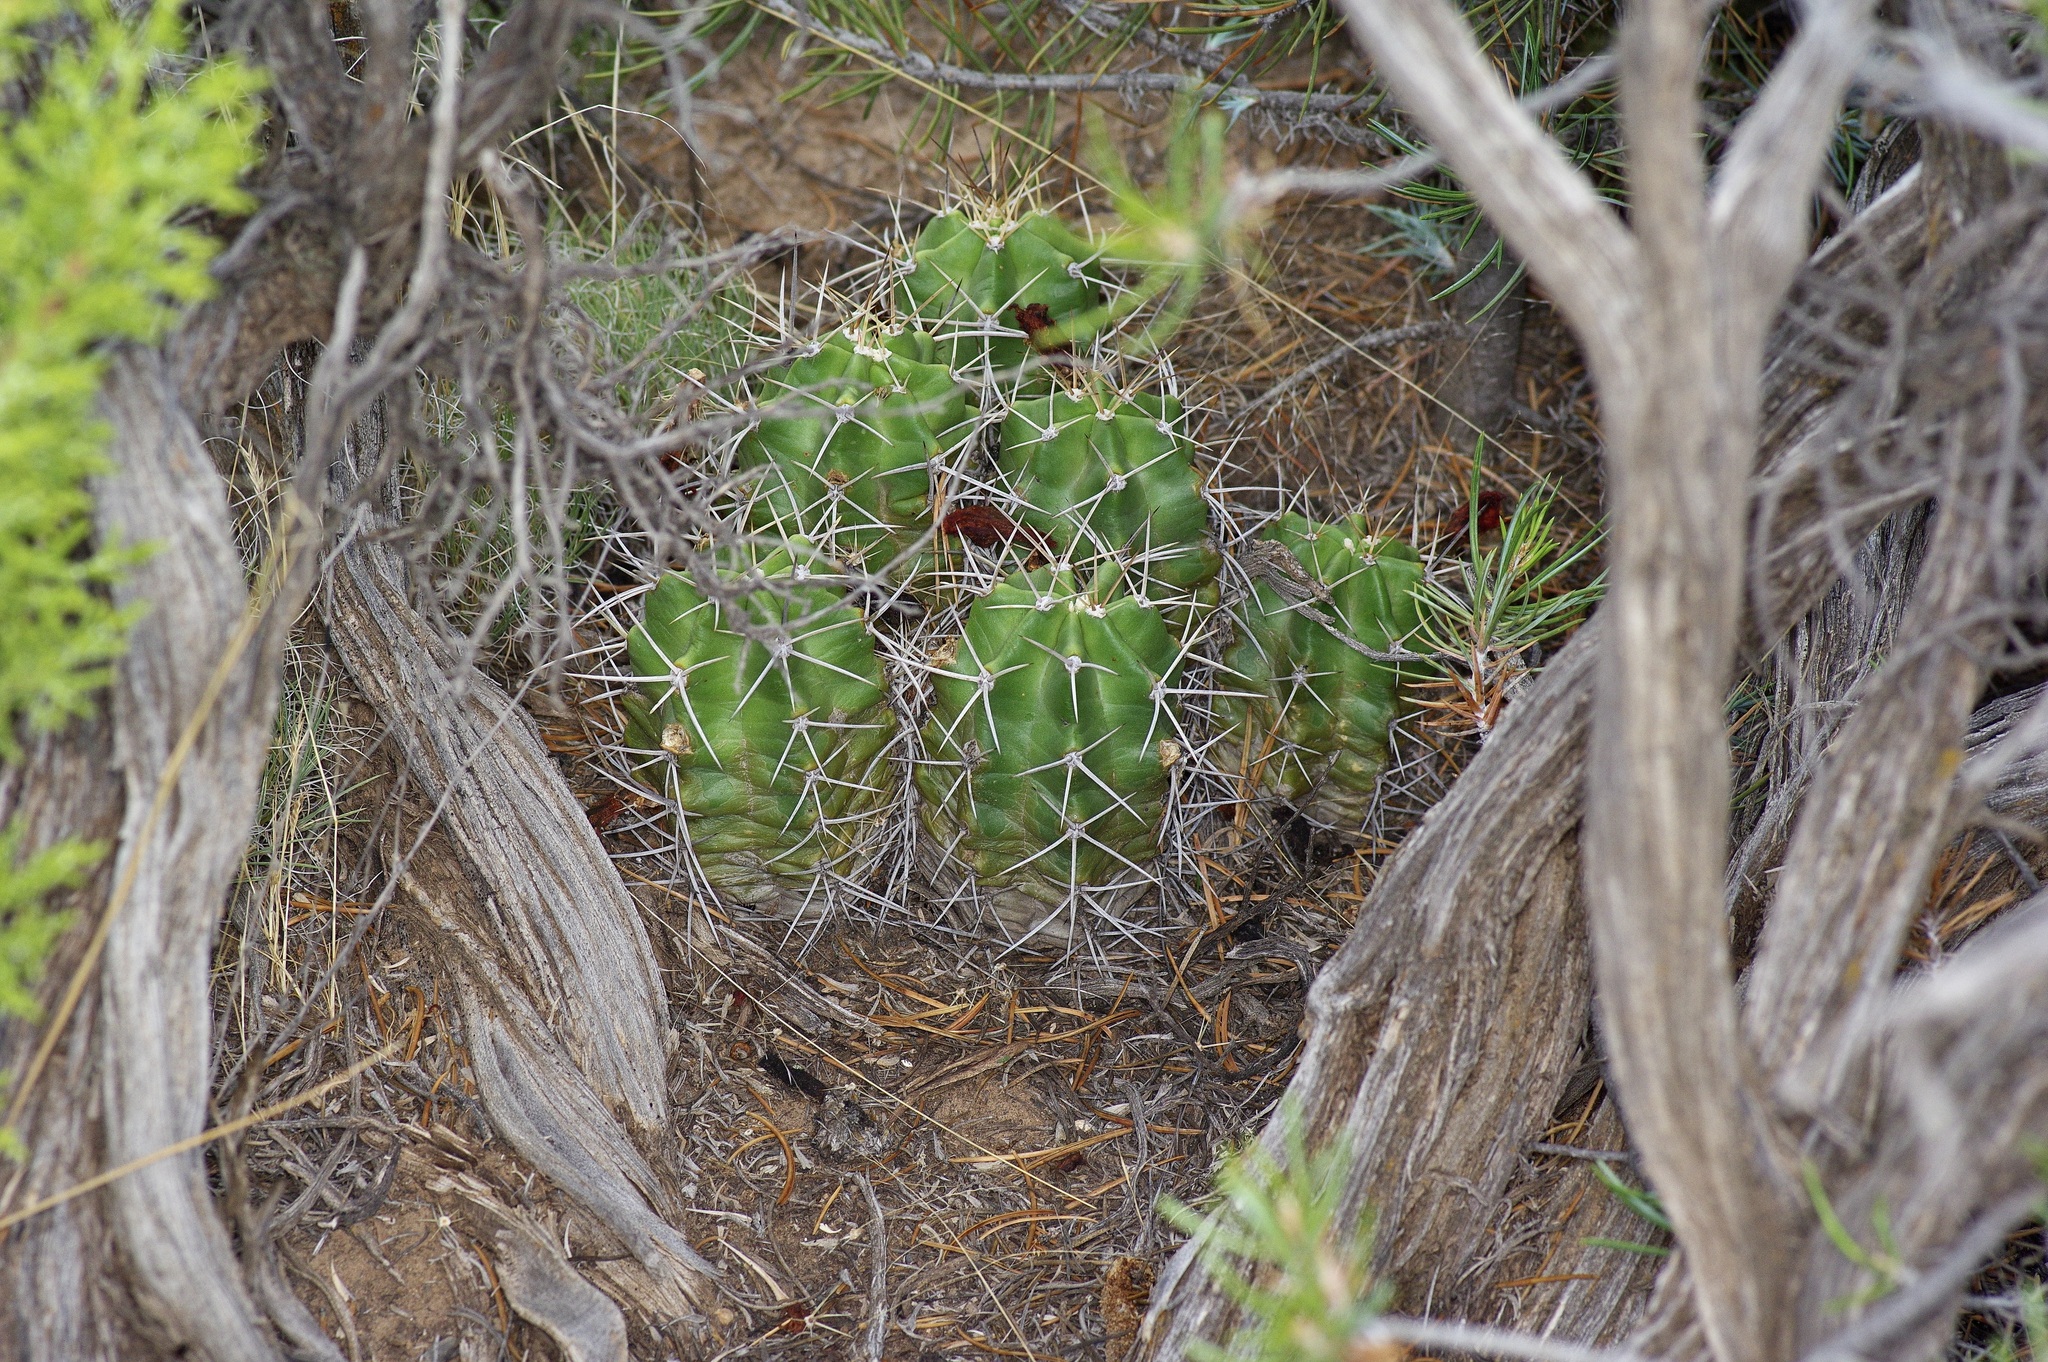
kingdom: Plantae
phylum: Tracheophyta
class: Magnoliopsida
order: Caryophyllales
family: Cactaceae
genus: Echinocereus
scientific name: Echinocereus triglochidiatus
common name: Claretcup hedgehog
